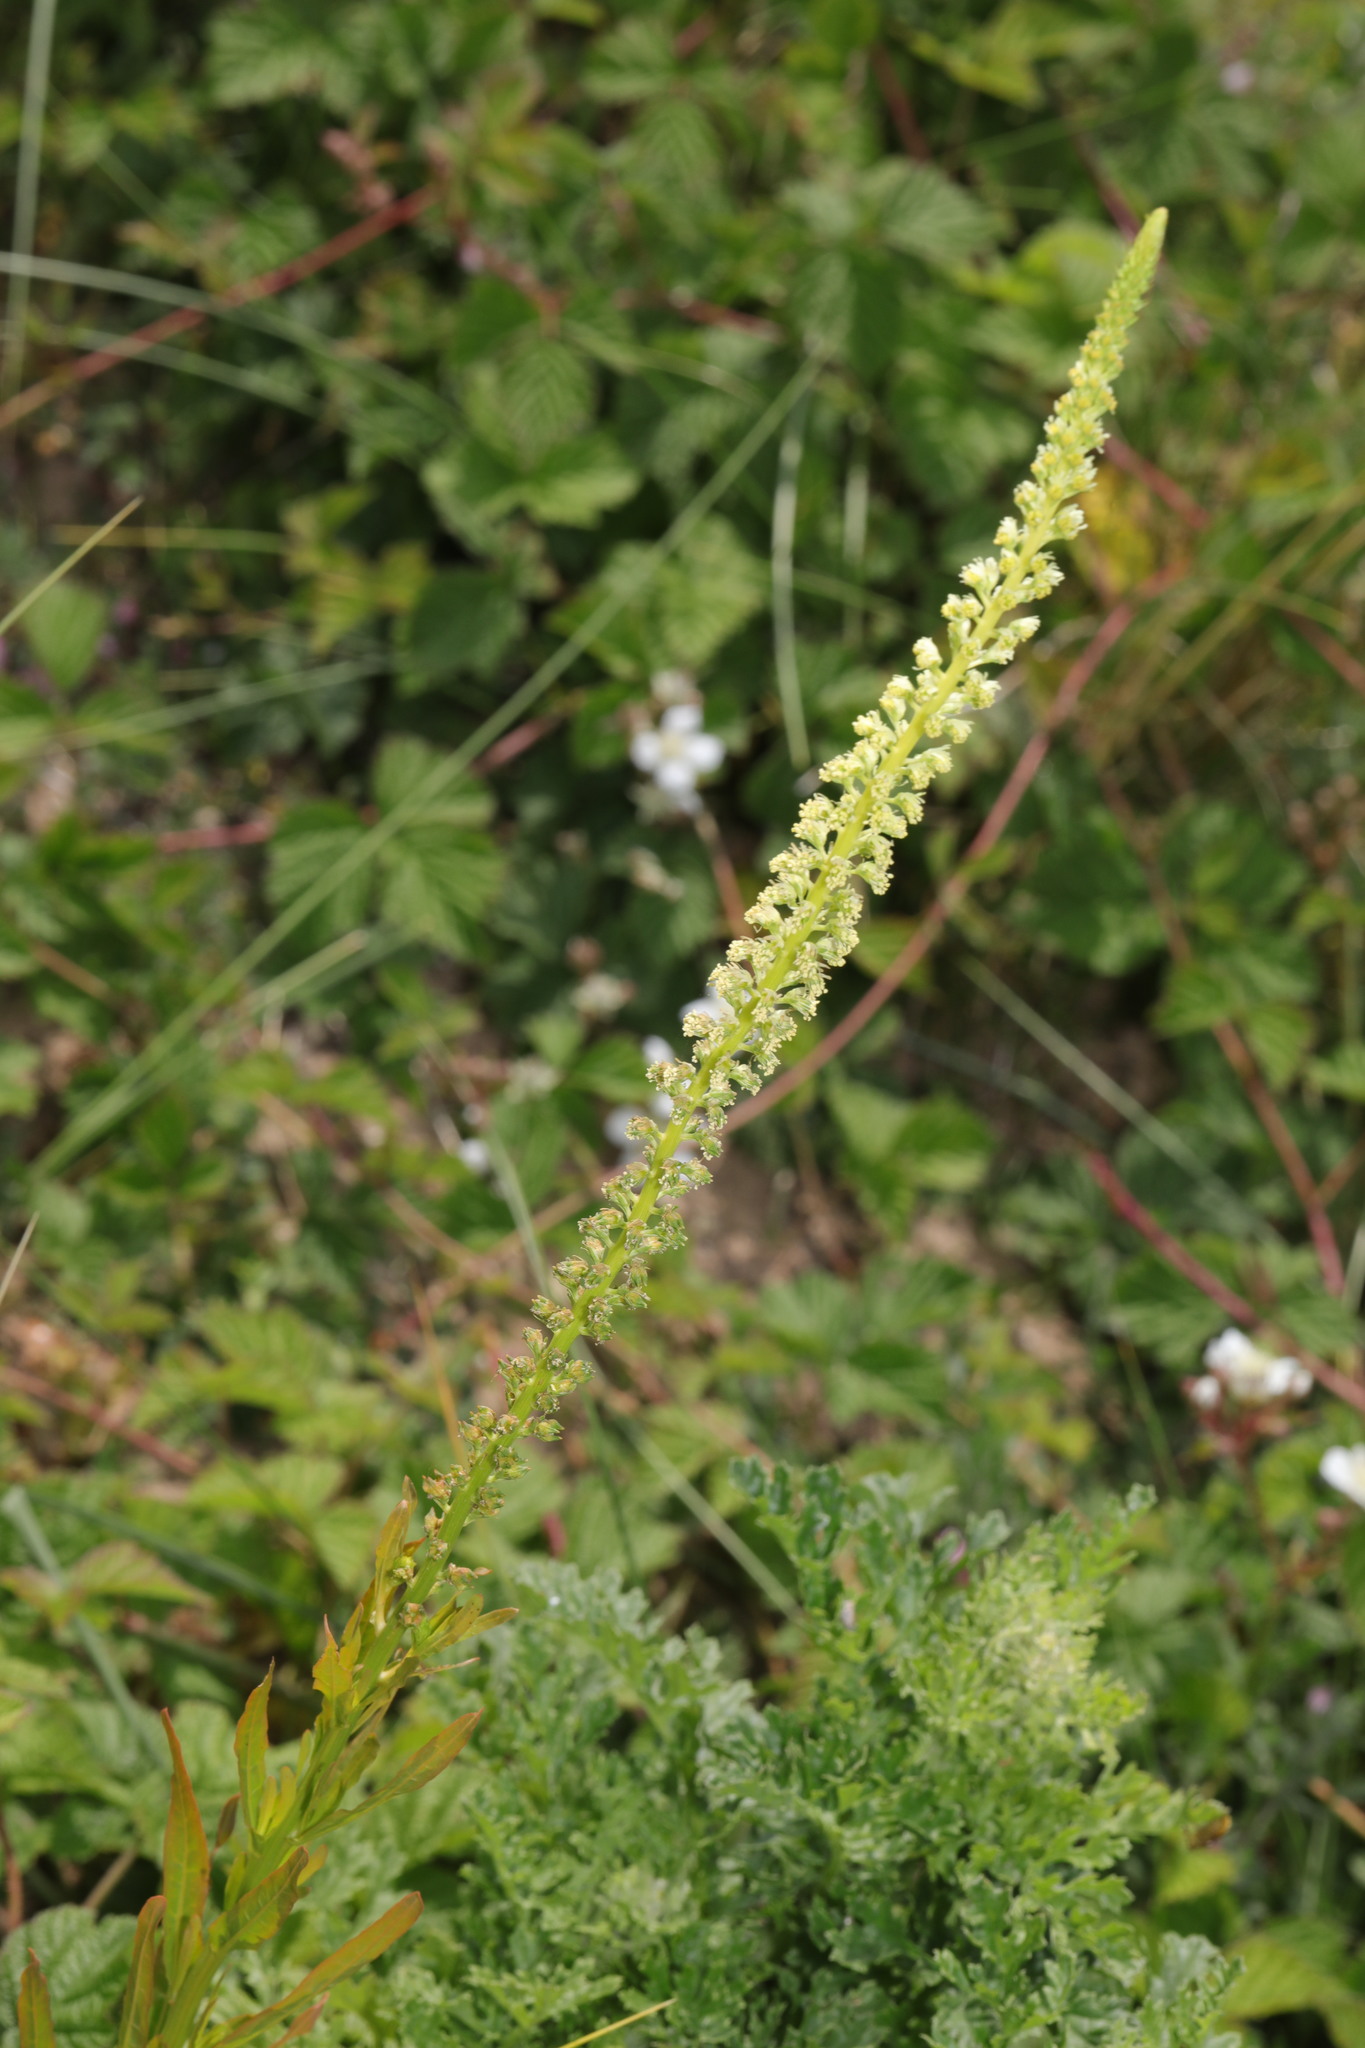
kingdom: Plantae
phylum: Tracheophyta
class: Magnoliopsida
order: Brassicales
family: Resedaceae
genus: Reseda
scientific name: Reseda luteola
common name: Weld
